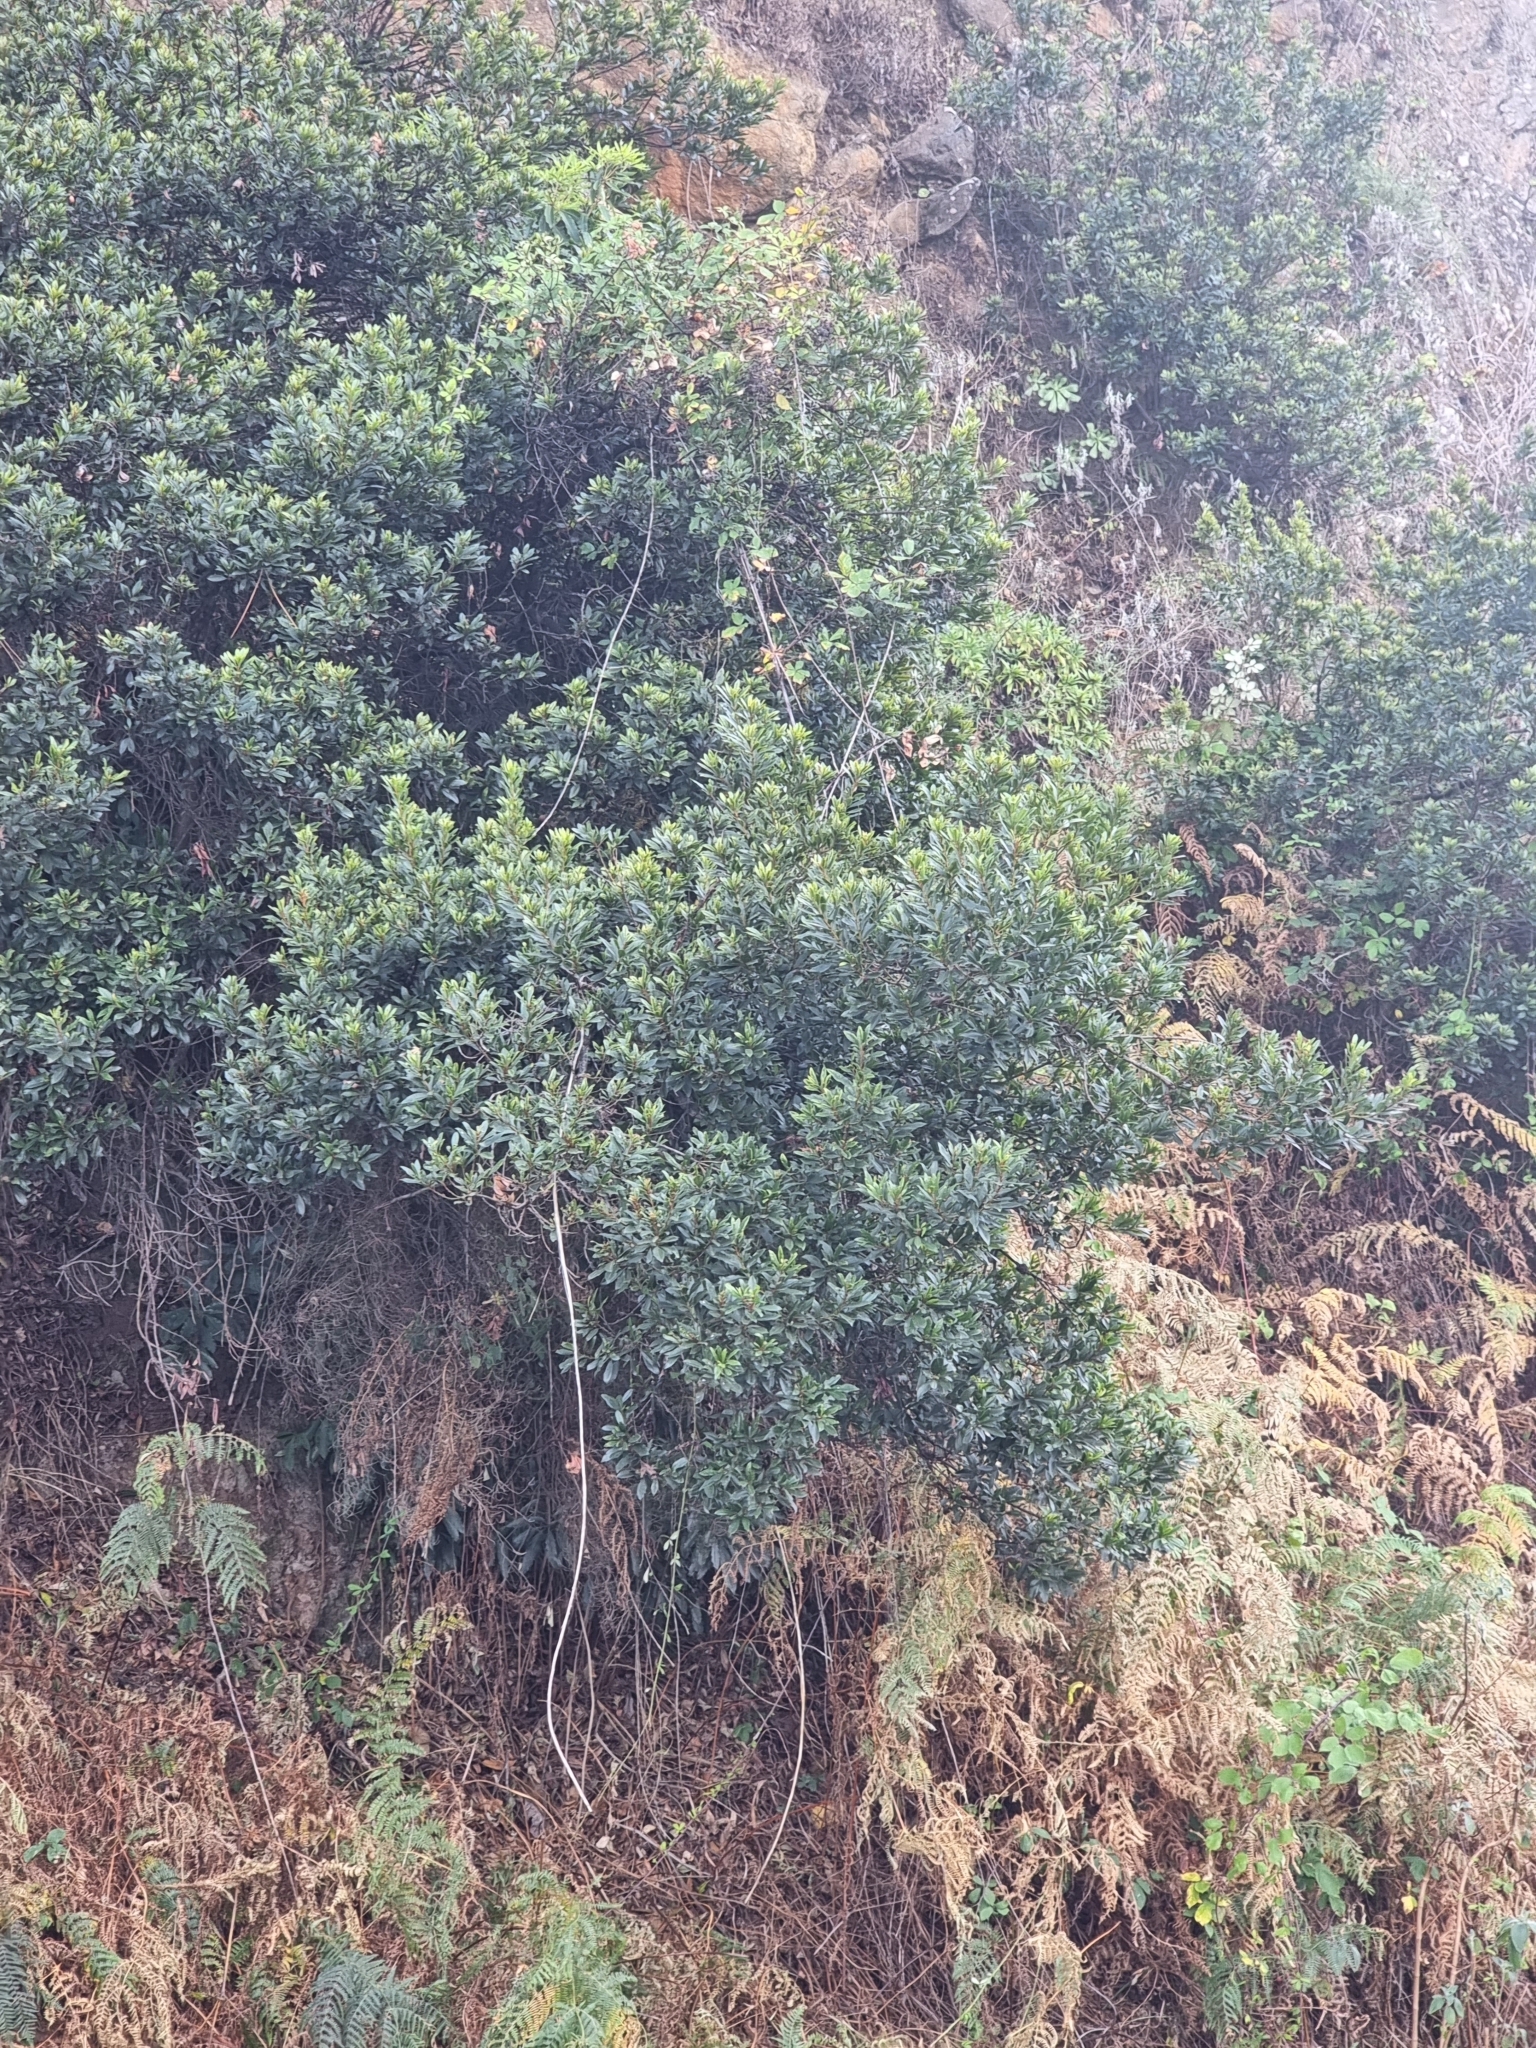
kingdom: Plantae
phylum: Tracheophyta
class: Magnoliopsida
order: Fagales
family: Myricaceae
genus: Morella
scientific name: Morella faya
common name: Firetree
